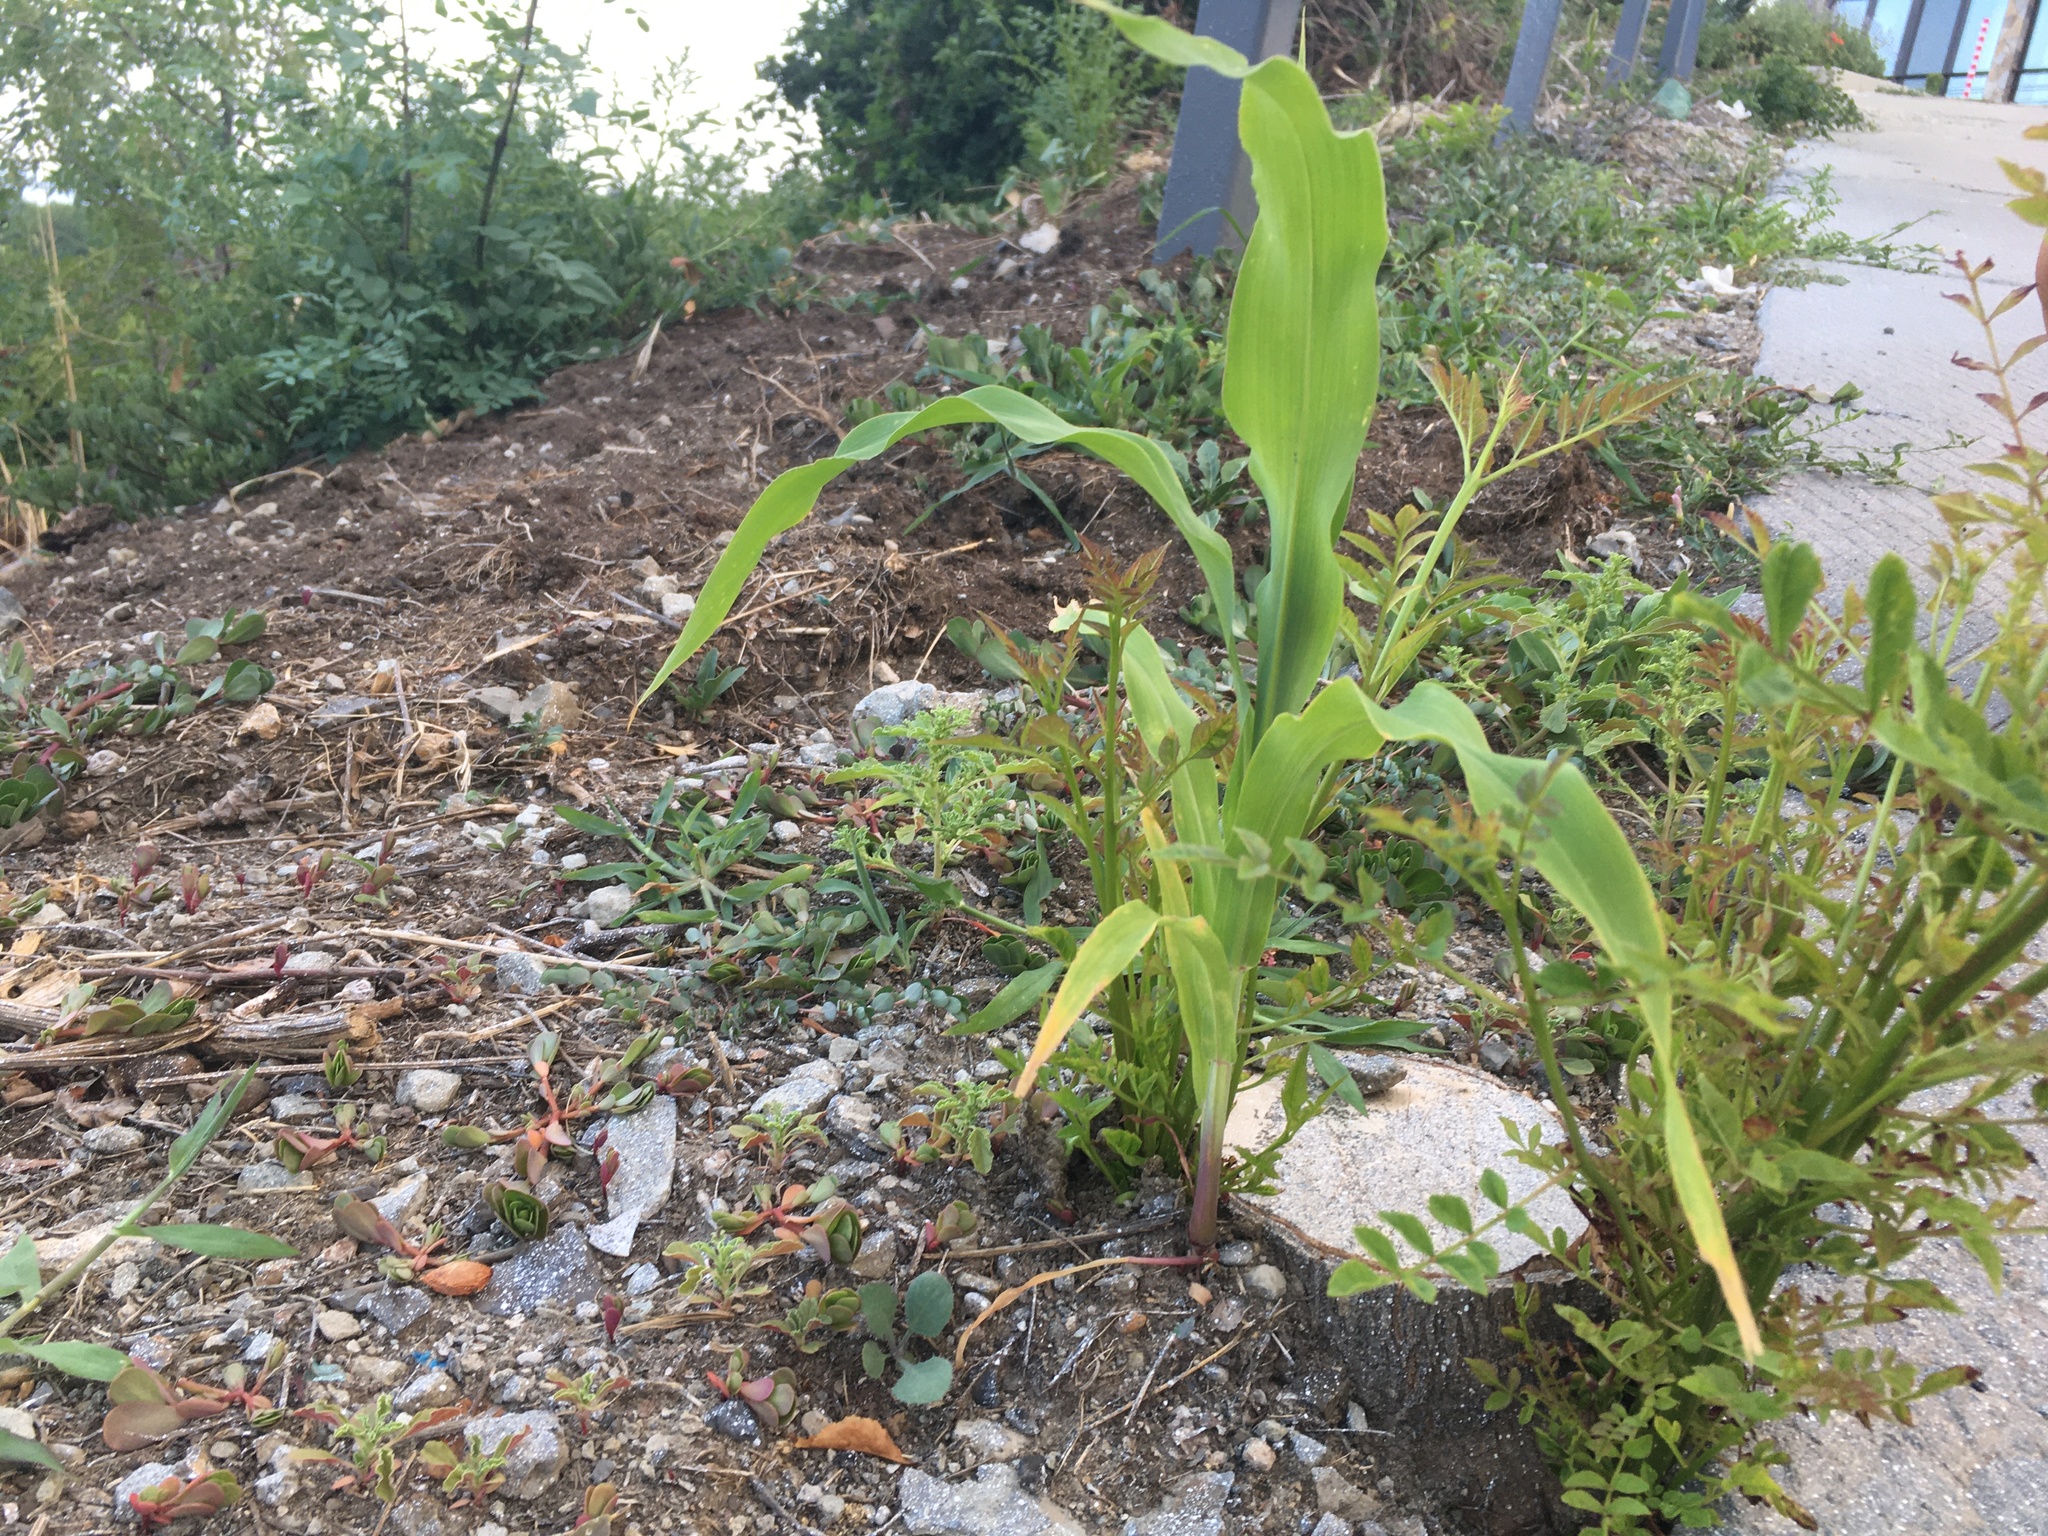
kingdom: Plantae
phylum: Tracheophyta
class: Liliopsida
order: Poales
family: Poaceae
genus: Zea
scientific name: Zea mays
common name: Maize
